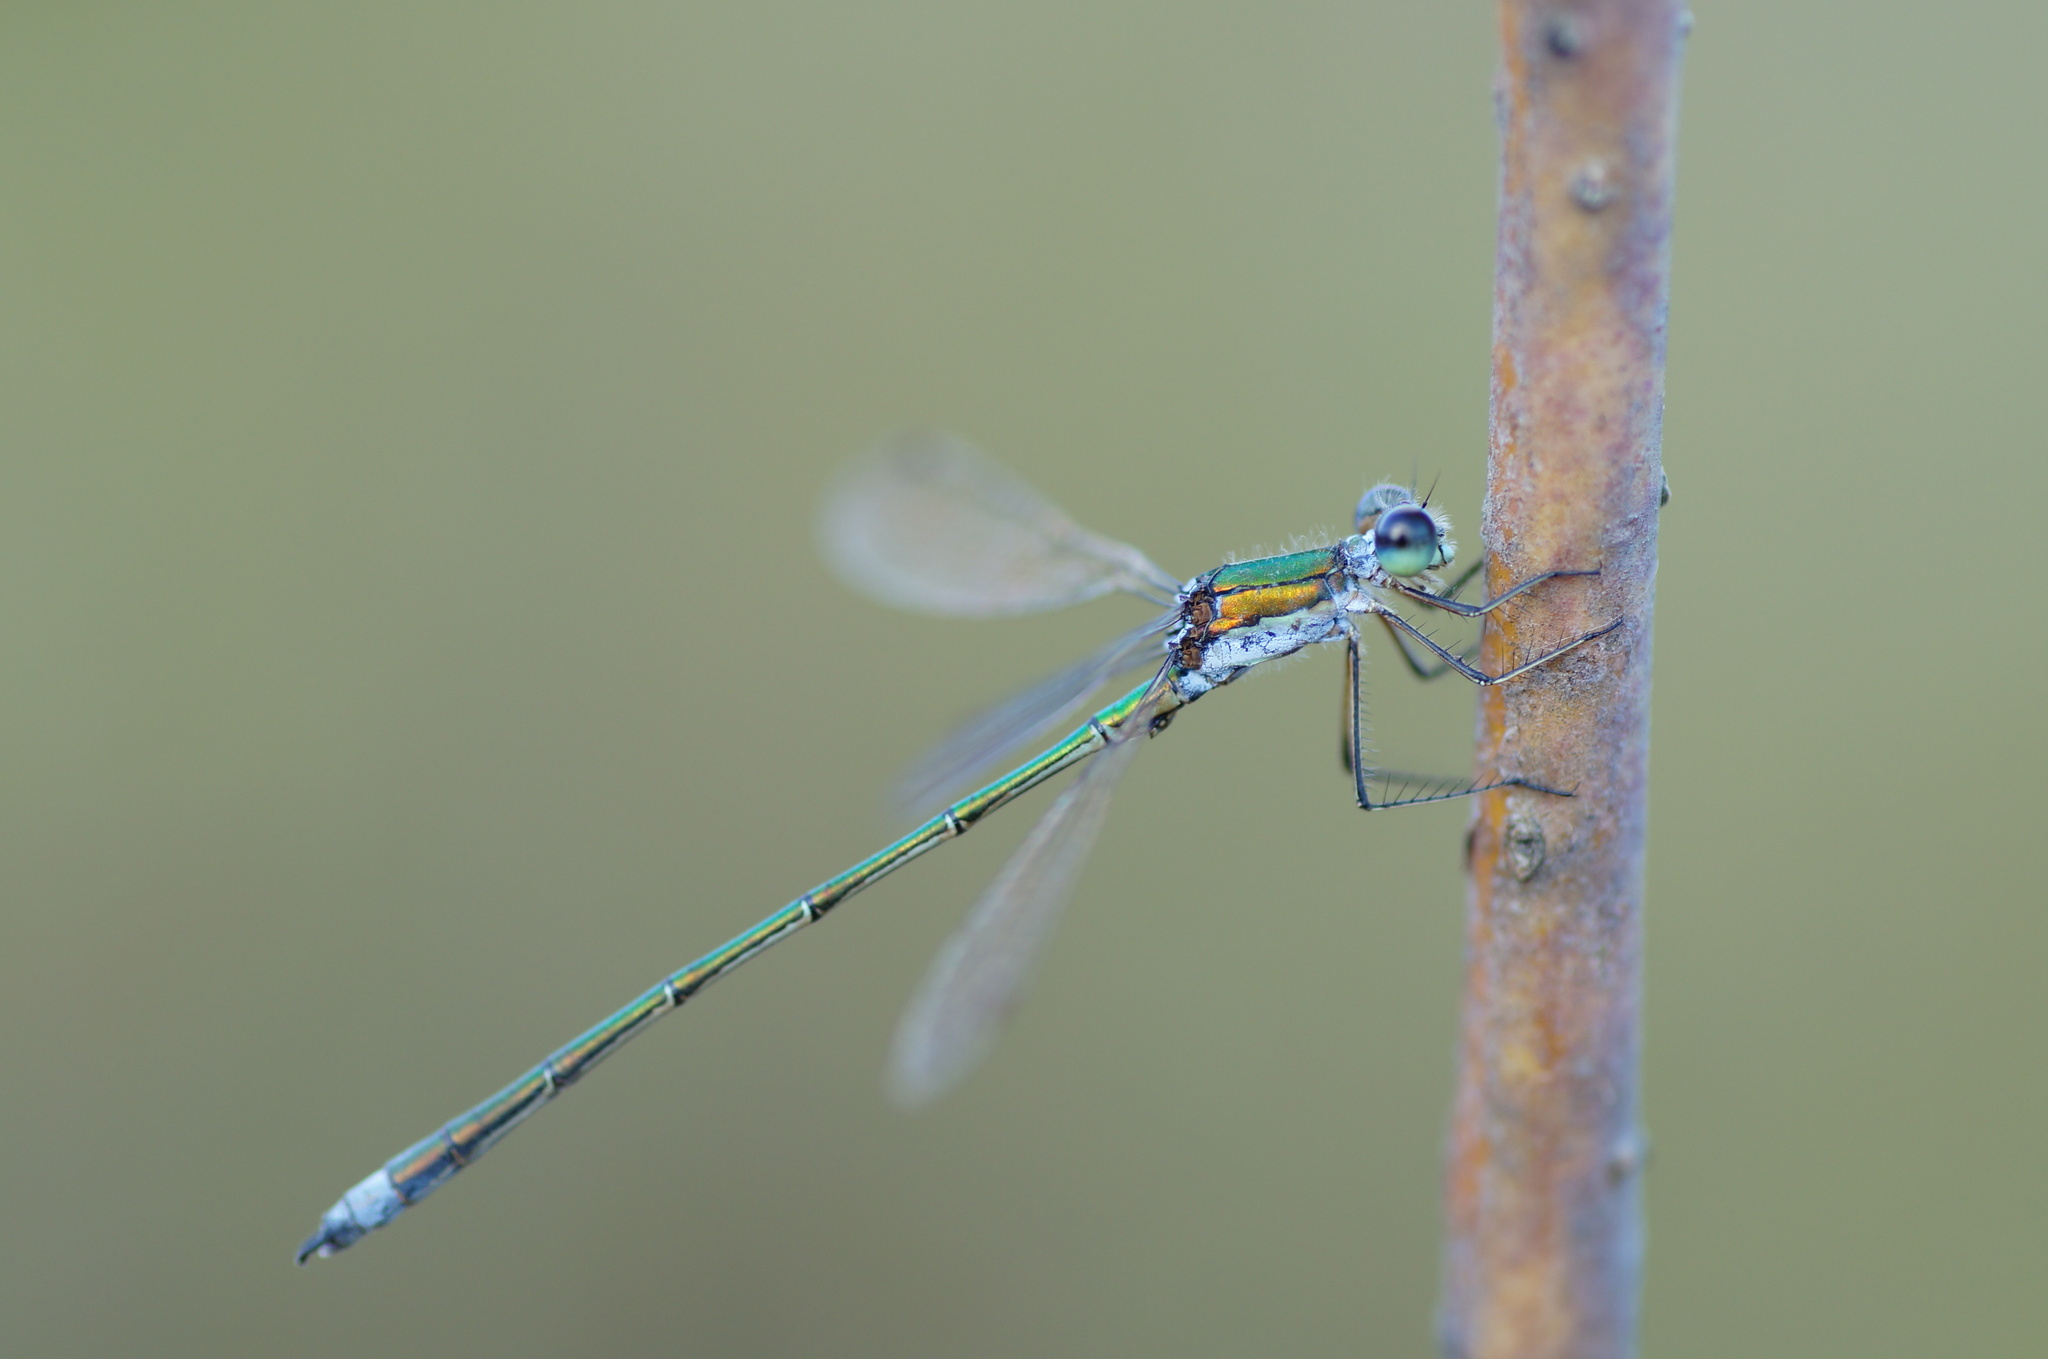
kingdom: Animalia
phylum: Arthropoda
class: Insecta
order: Odonata
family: Lestidae
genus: Lestes
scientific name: Lestes virens
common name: Small emerald spreadwing
